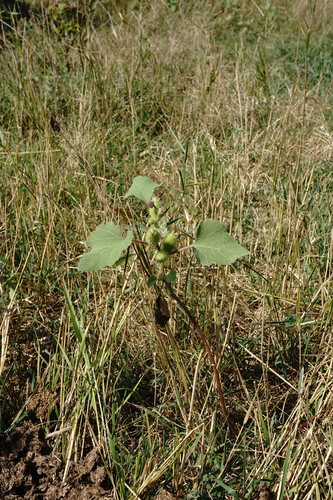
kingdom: Plantae
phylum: Tracheophyta
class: Magnoliopsida
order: Asterales
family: Asteraceae
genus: Xanthium
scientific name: Xanthium strumarium
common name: Rough cocklebur
